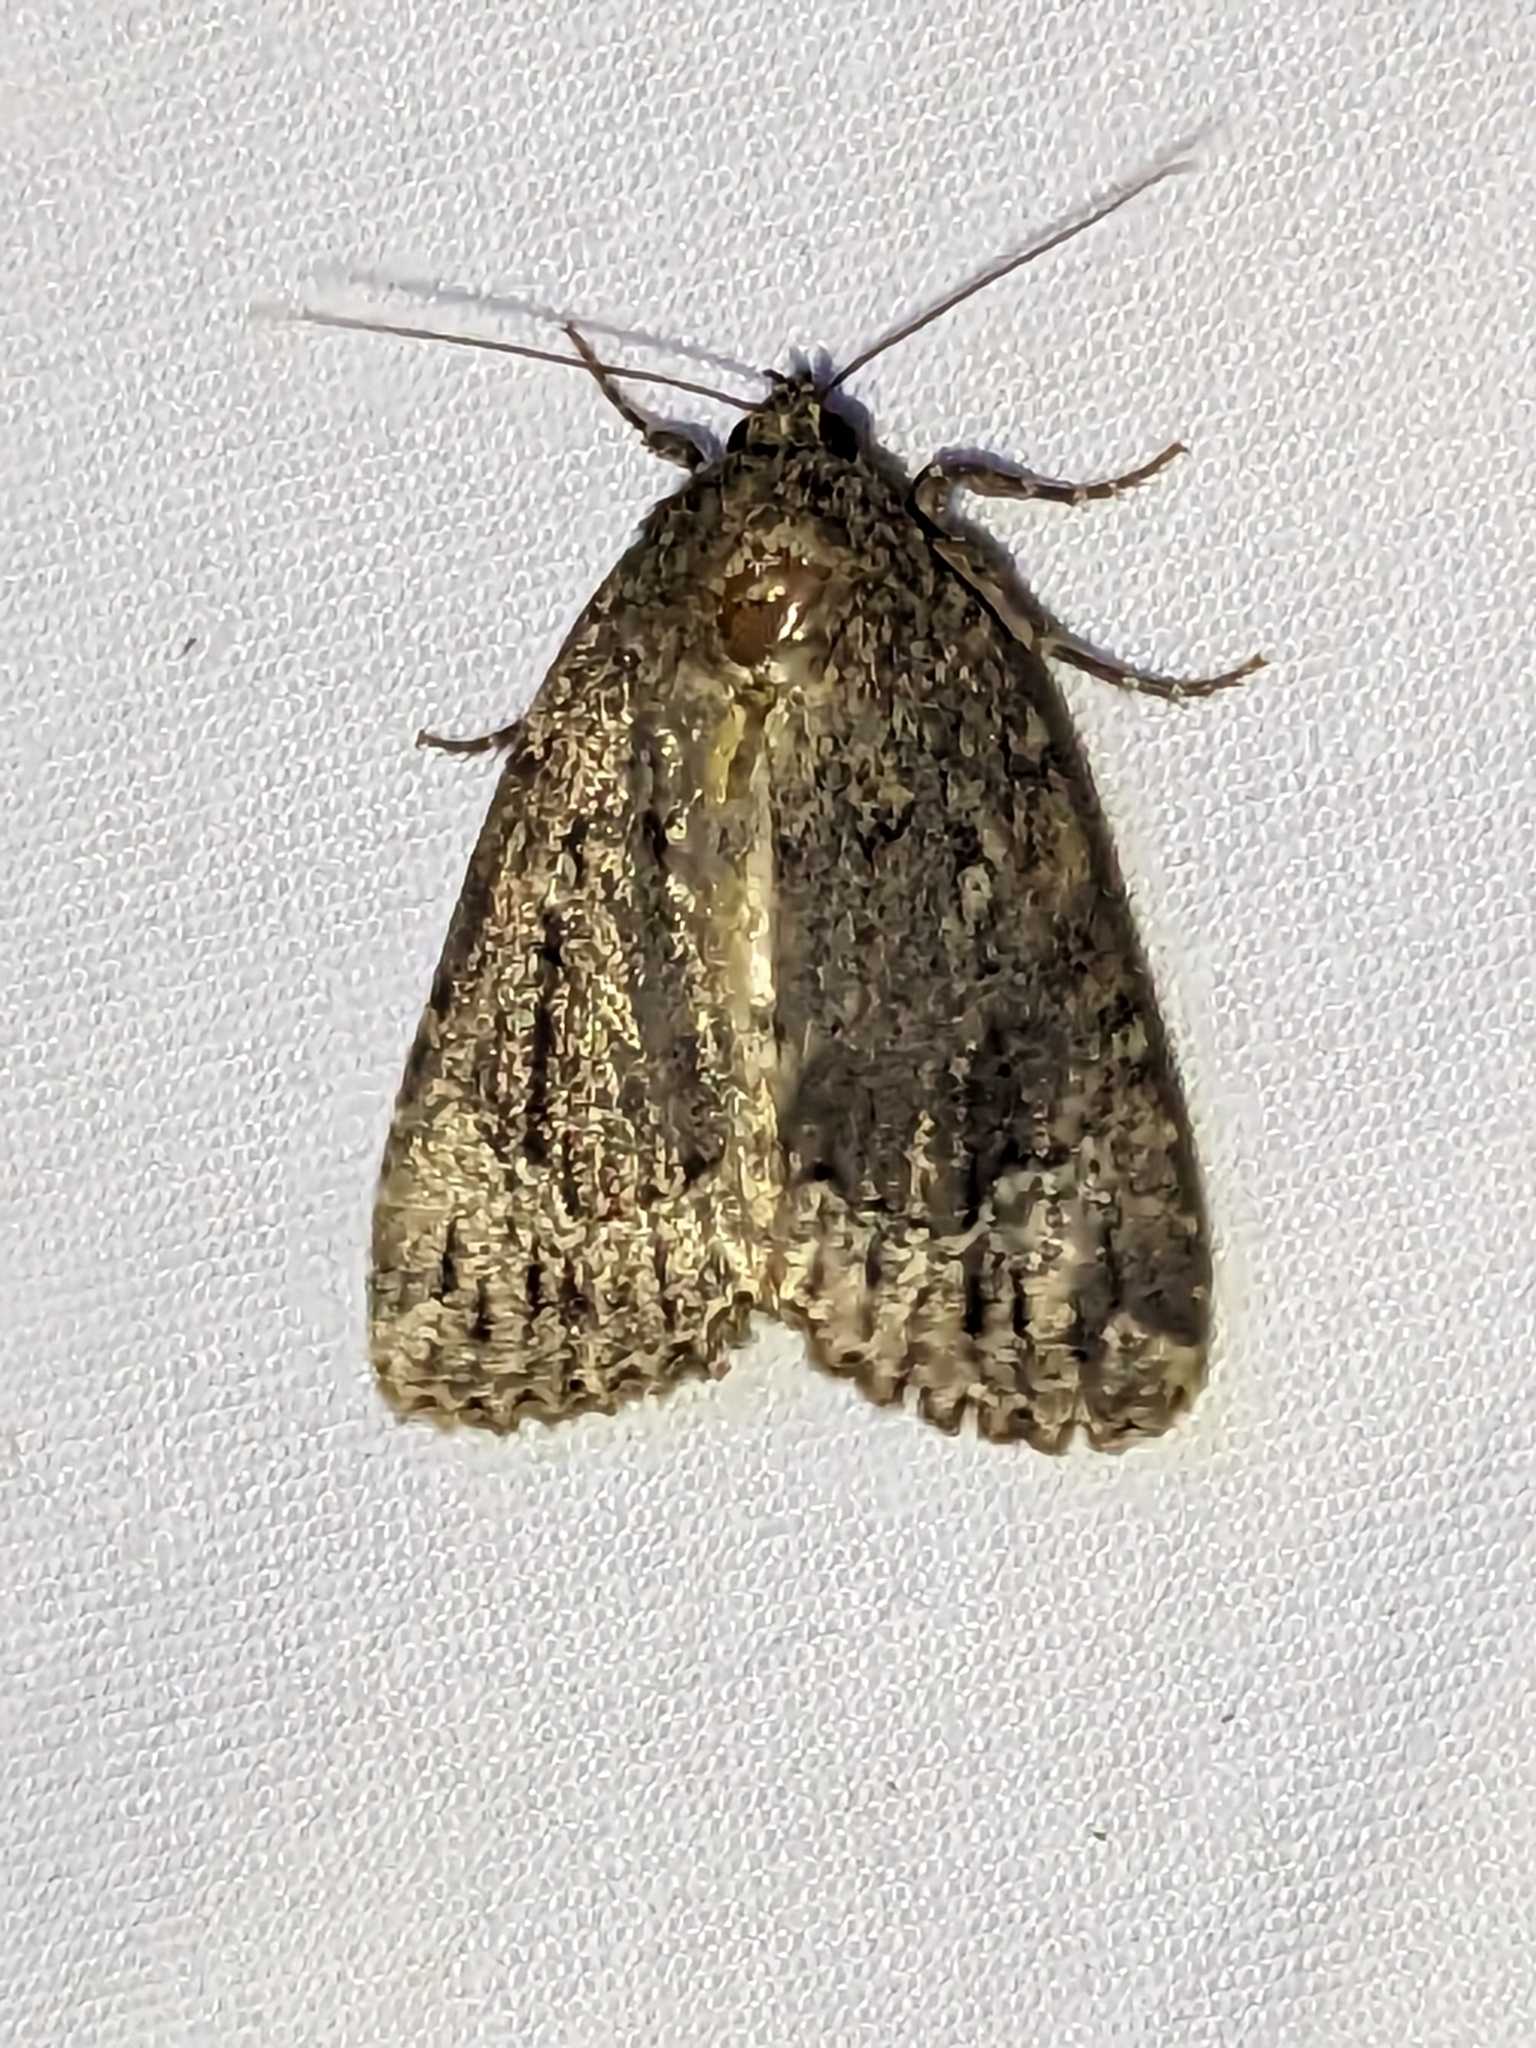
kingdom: Animalia
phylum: Arthropoda
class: Insecta
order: Lepidoptera
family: Noctuidae
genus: Amphipyra
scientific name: Amphipyra pyramidoides
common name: American copper underwing
